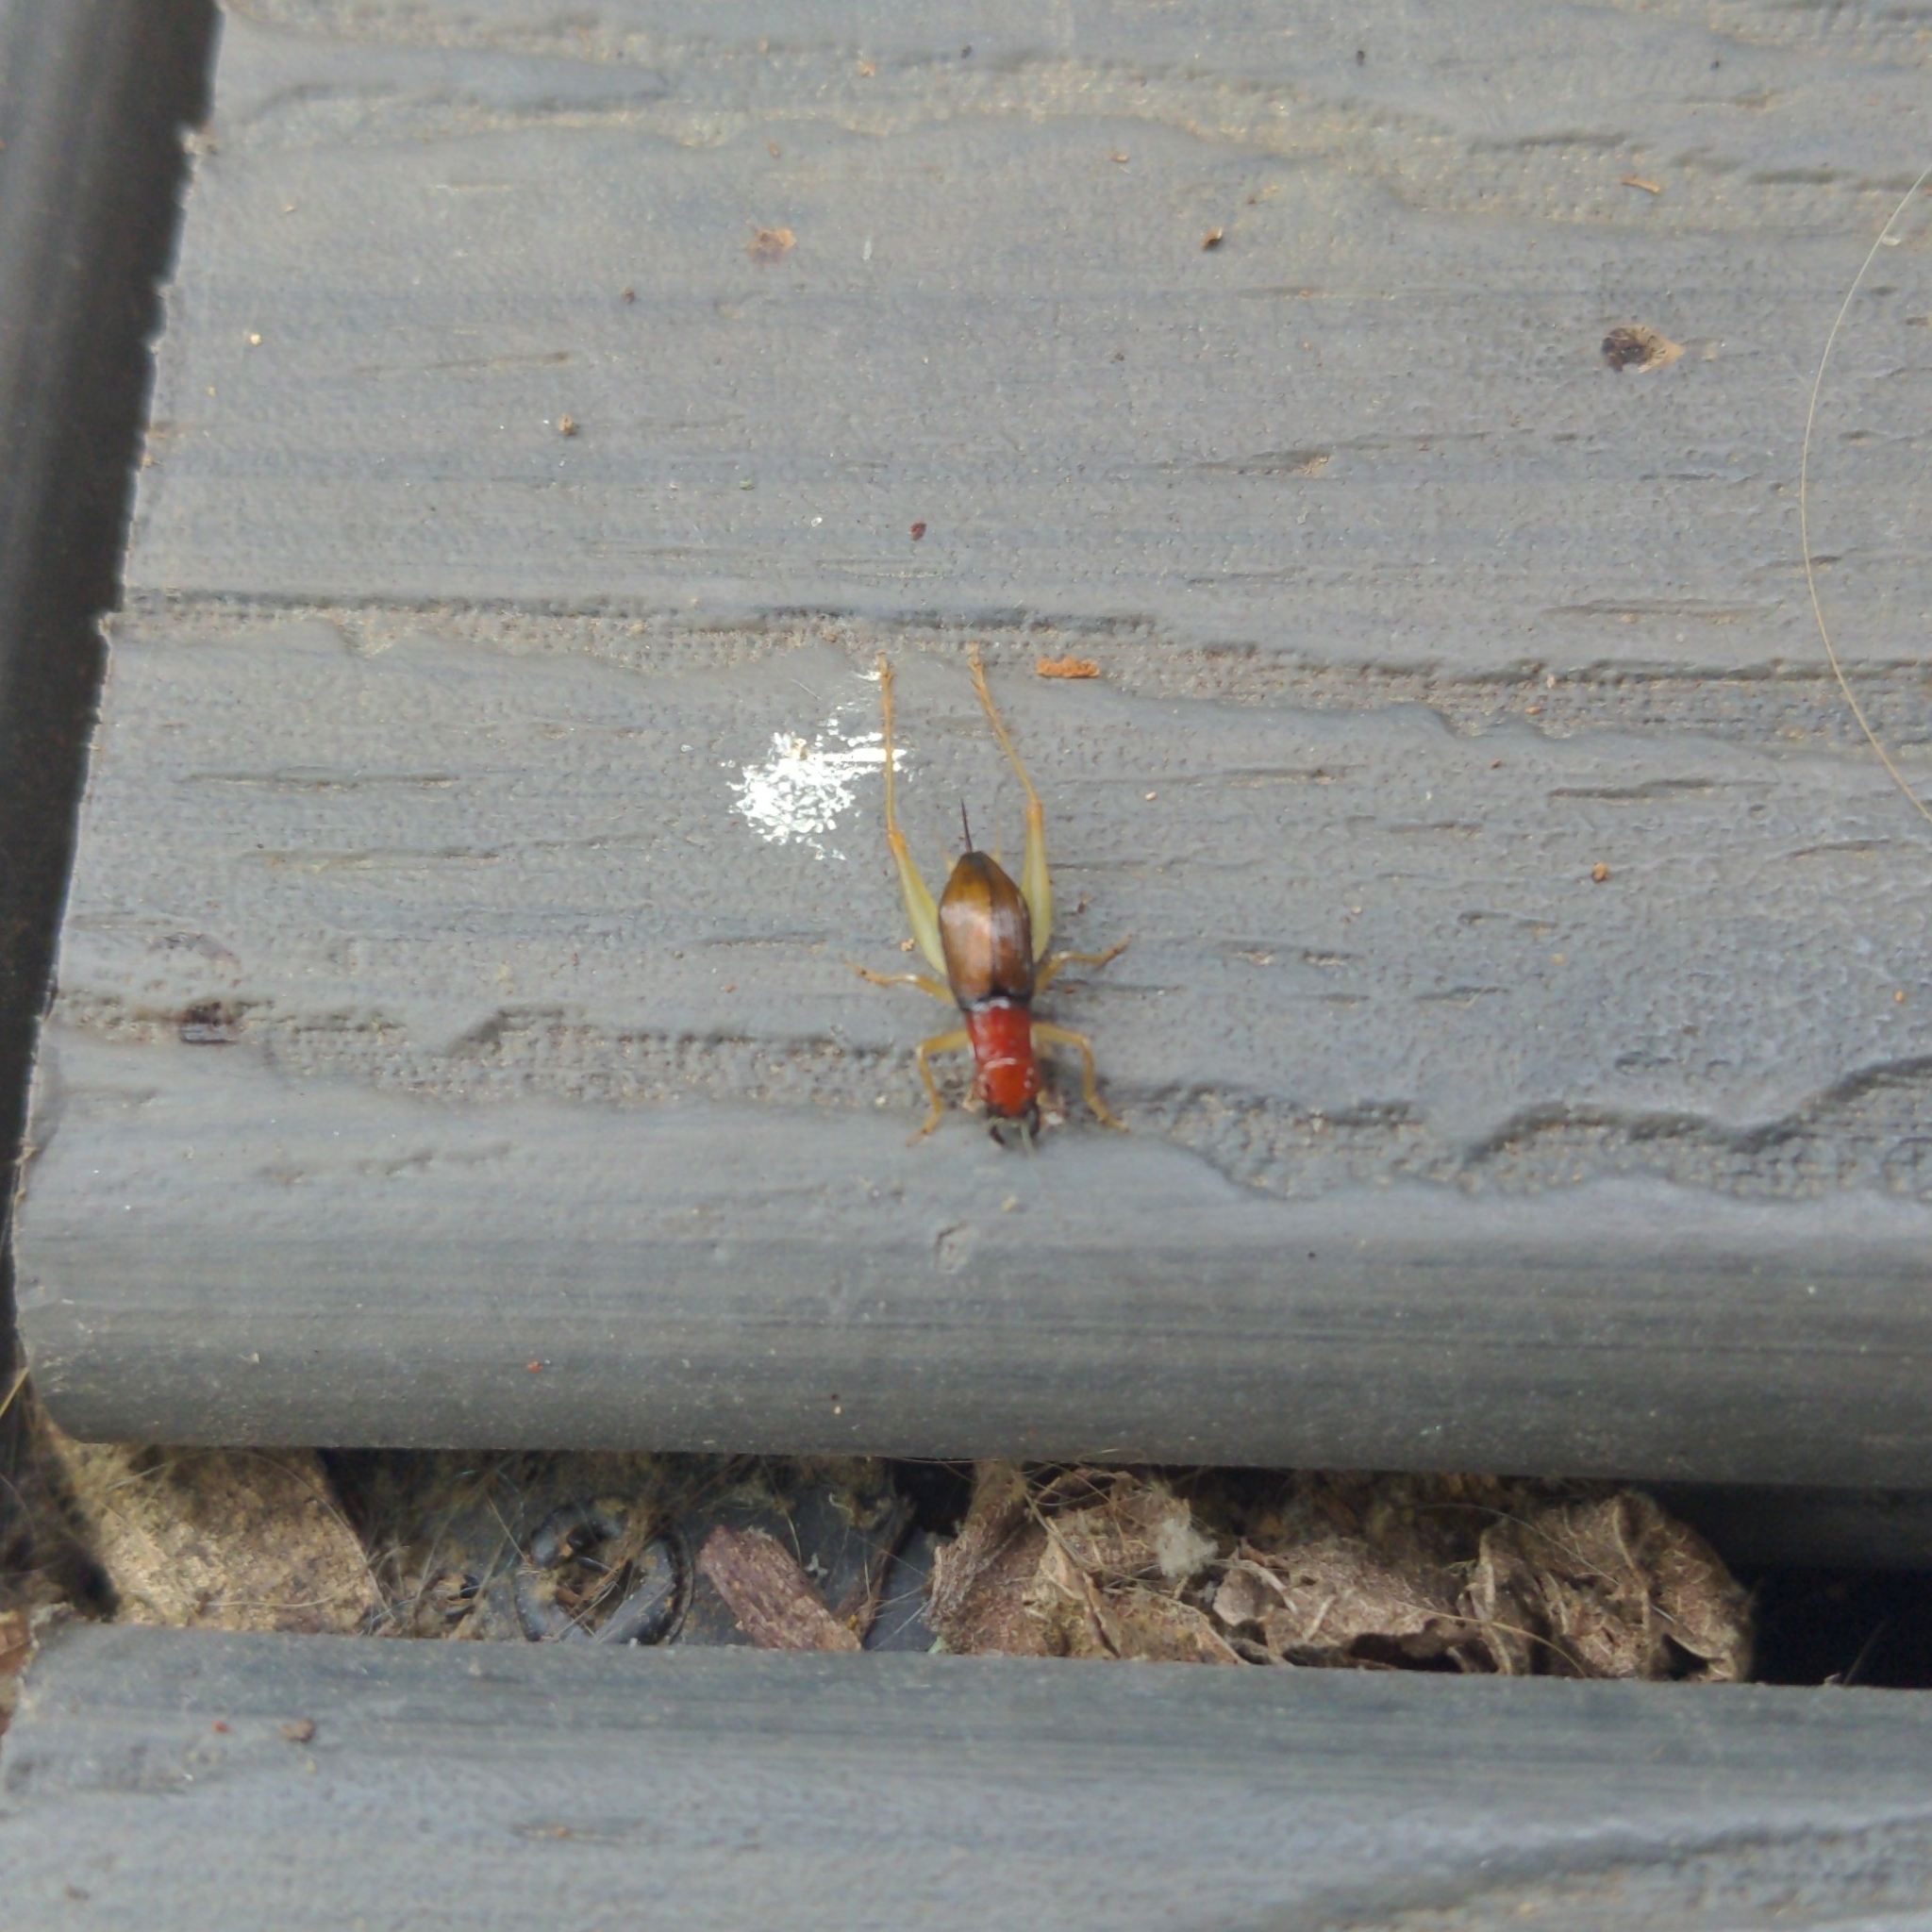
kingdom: Animalia
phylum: Arthropoda
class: Insecta
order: Orthoptera
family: Trigonidiidae
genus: Phyllopalpus
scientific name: Phyllopalpus pulchellus
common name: Handsome trig
